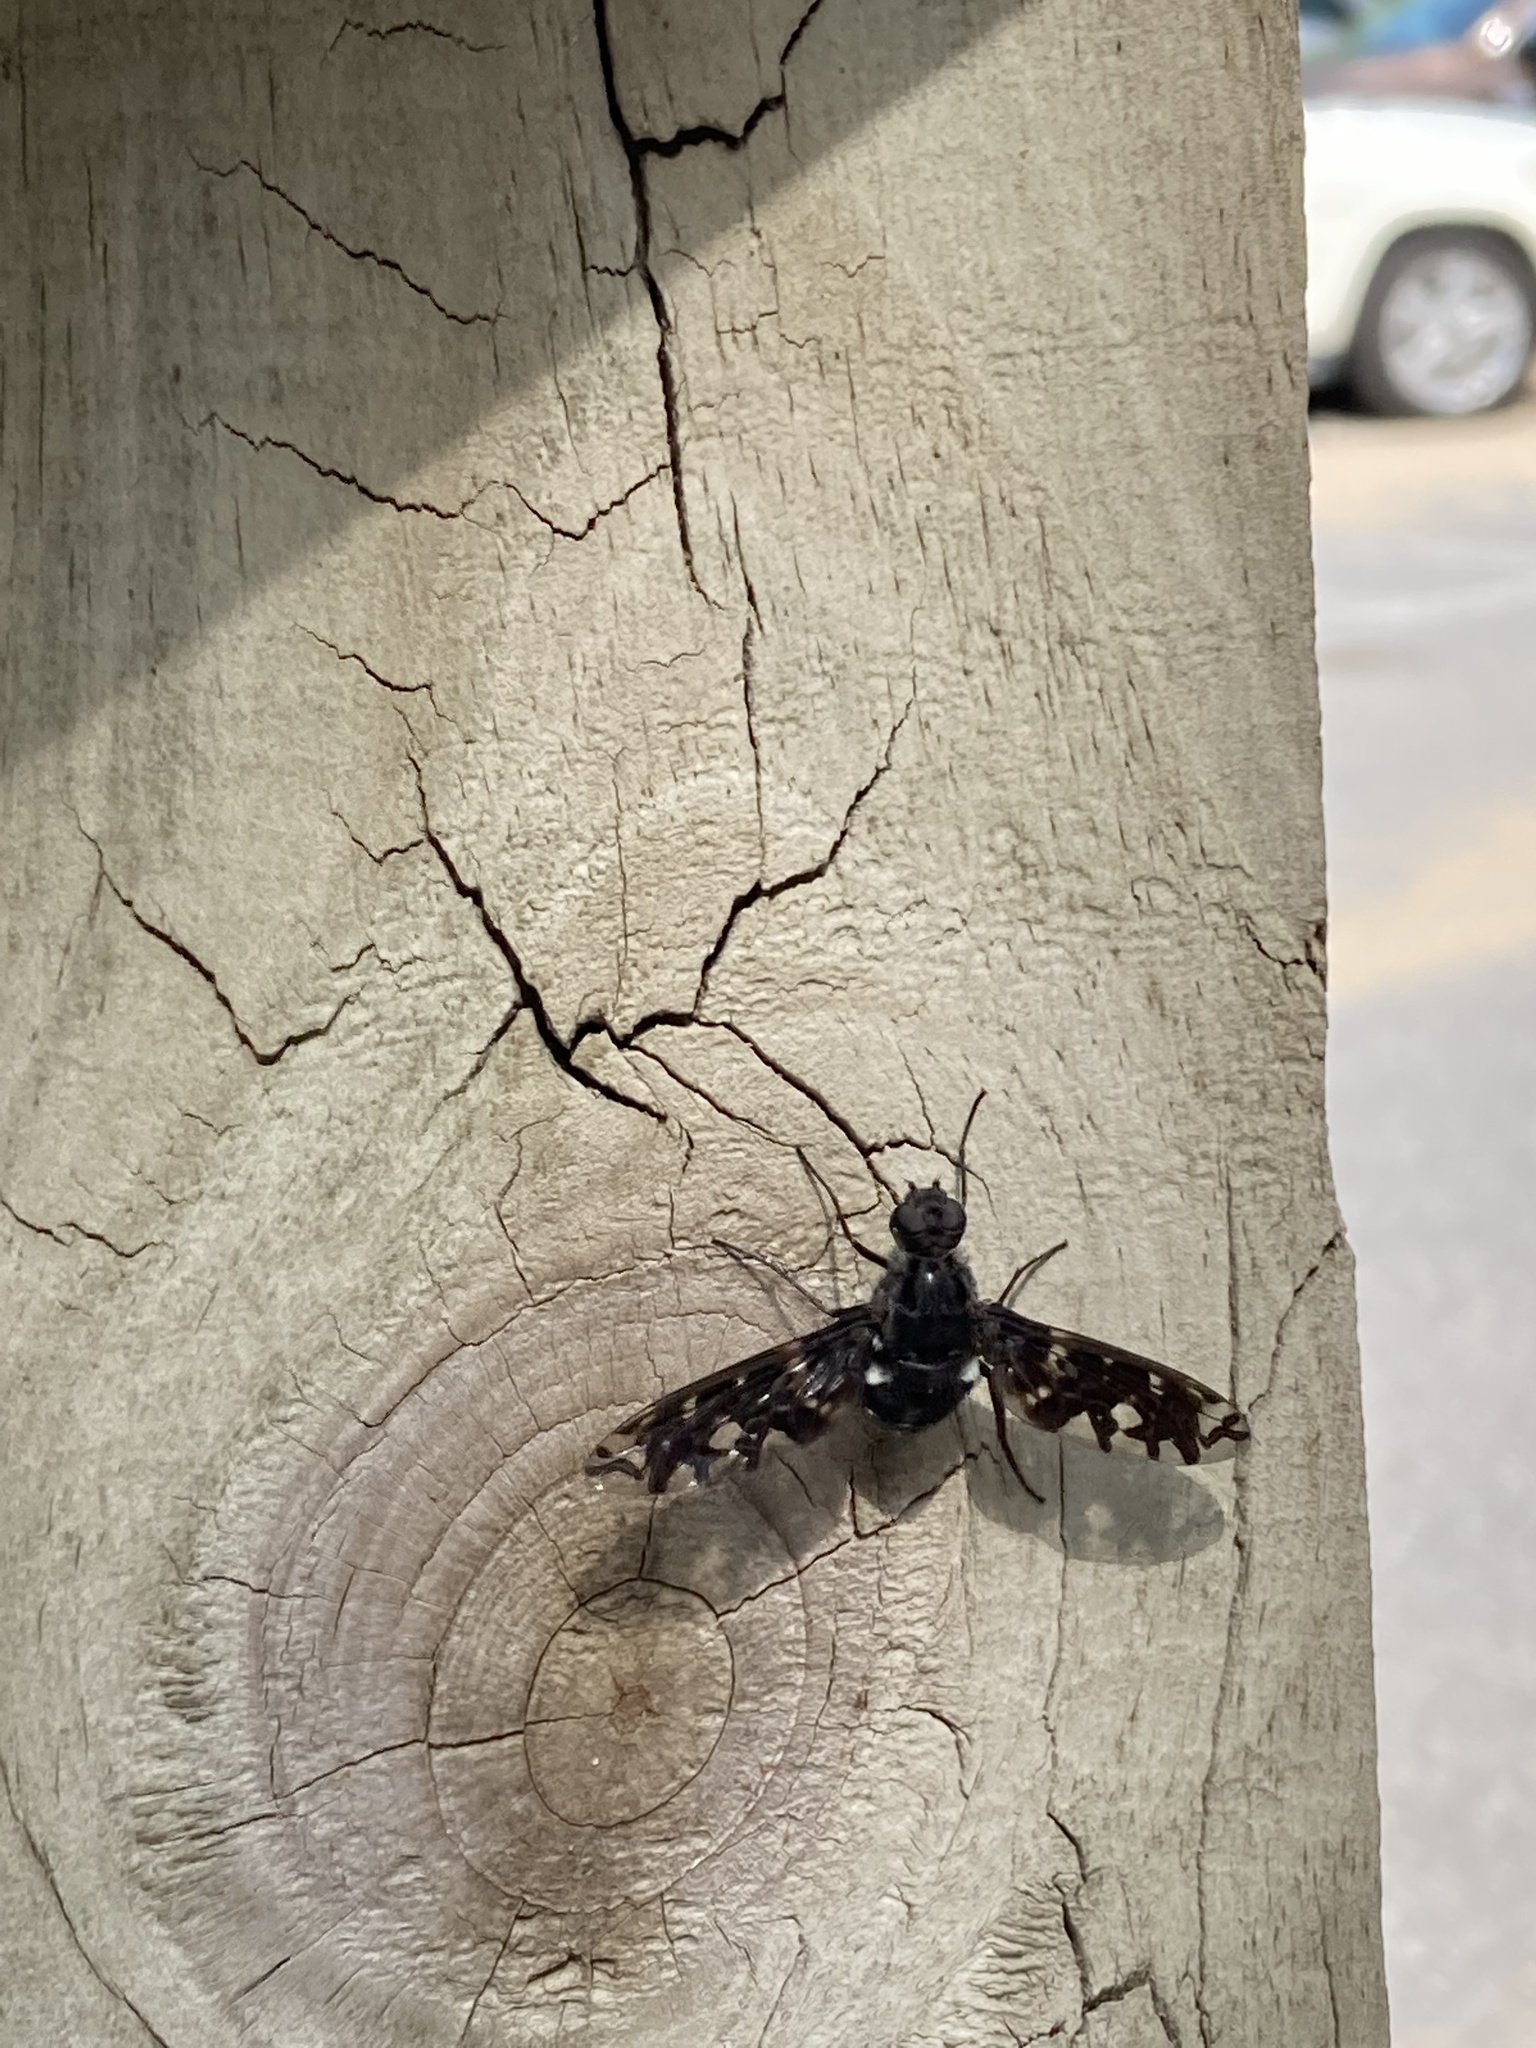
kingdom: Animalia
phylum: Arthropoda
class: Insecta
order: Diptera
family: Bombyliidae
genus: Xenox
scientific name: Xenox tigrinus
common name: Tiger bee fly
